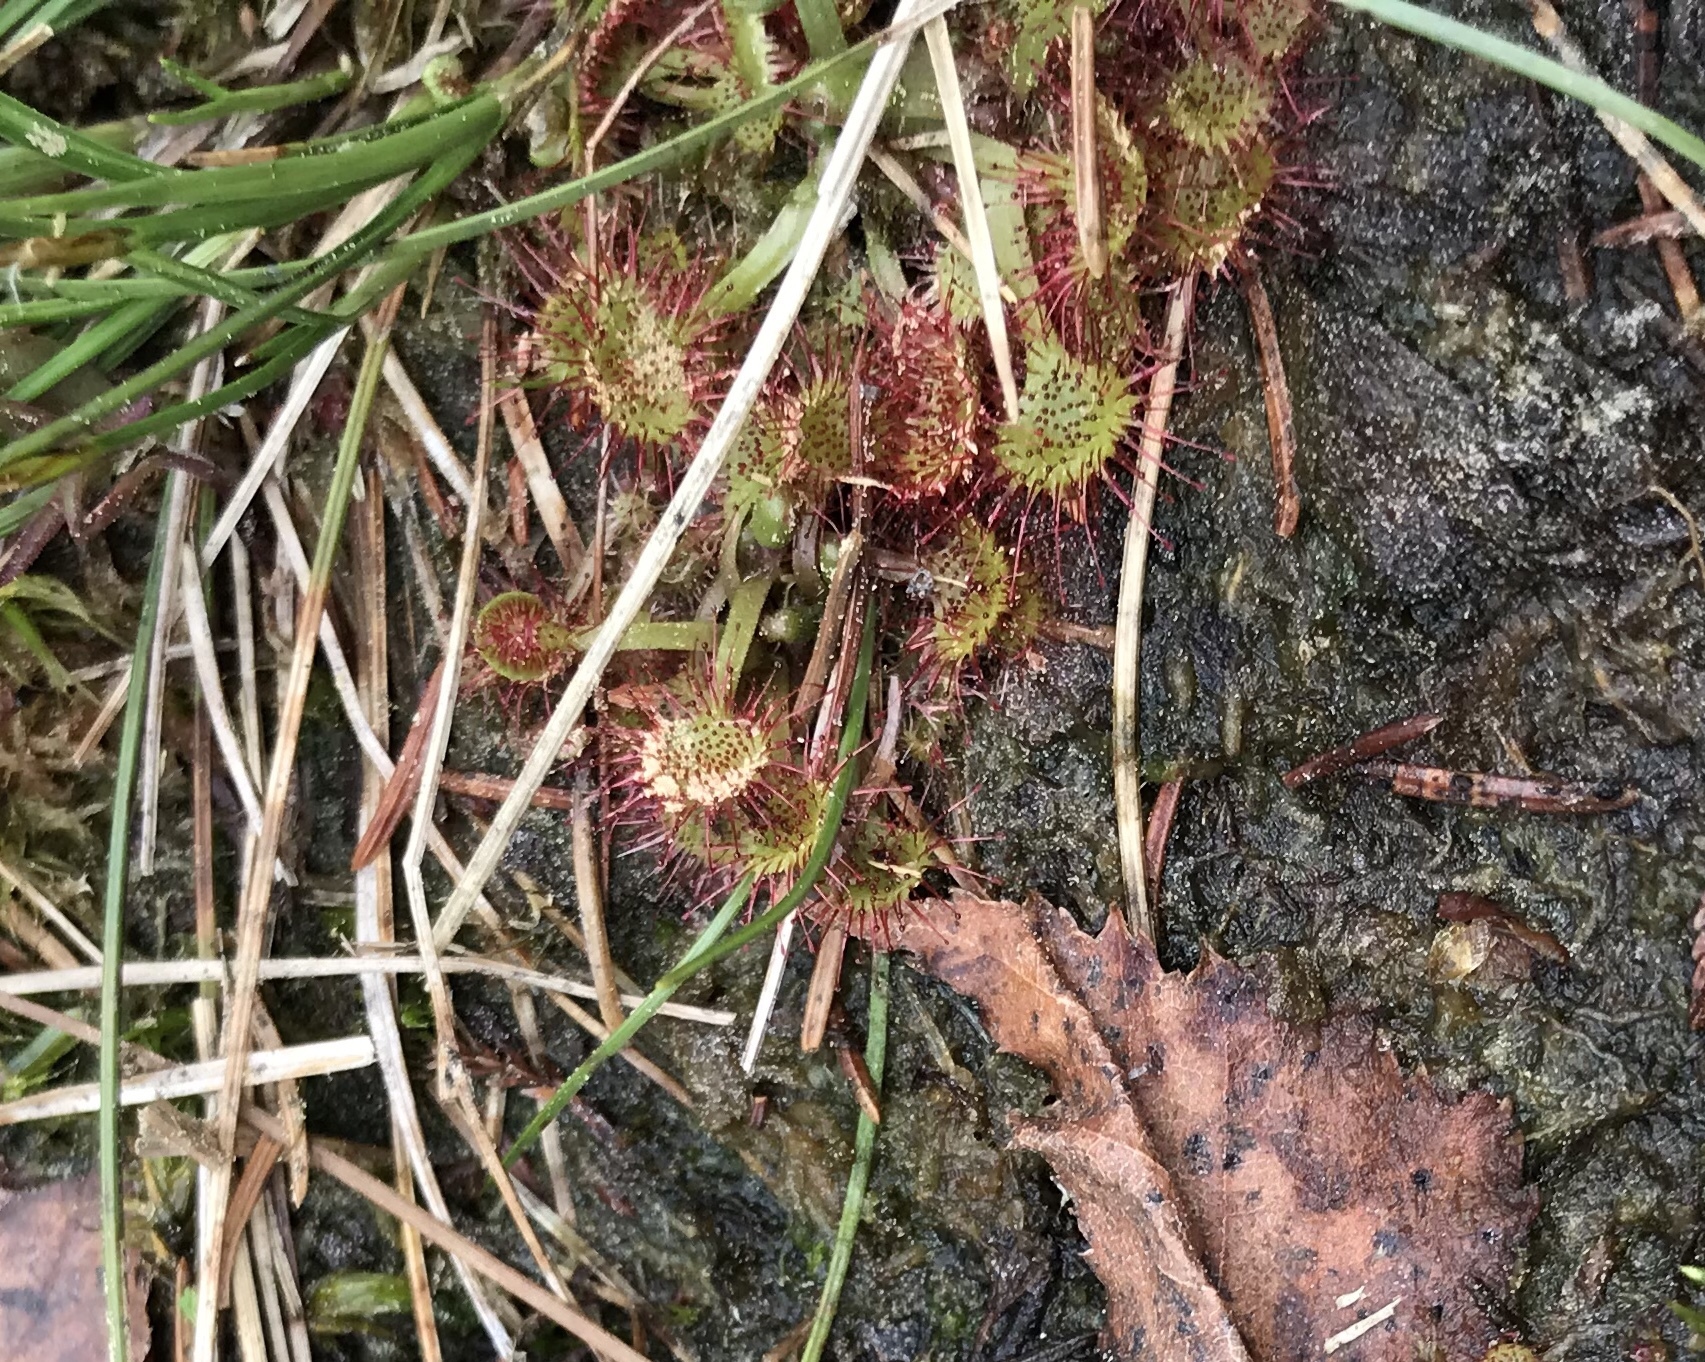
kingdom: Plantae
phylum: Tracheophyta
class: Magnoliopsida
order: Caryophyllales
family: Droseraceae
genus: Drosera
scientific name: Drosera rotundifolia
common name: Round-leaved sundew
